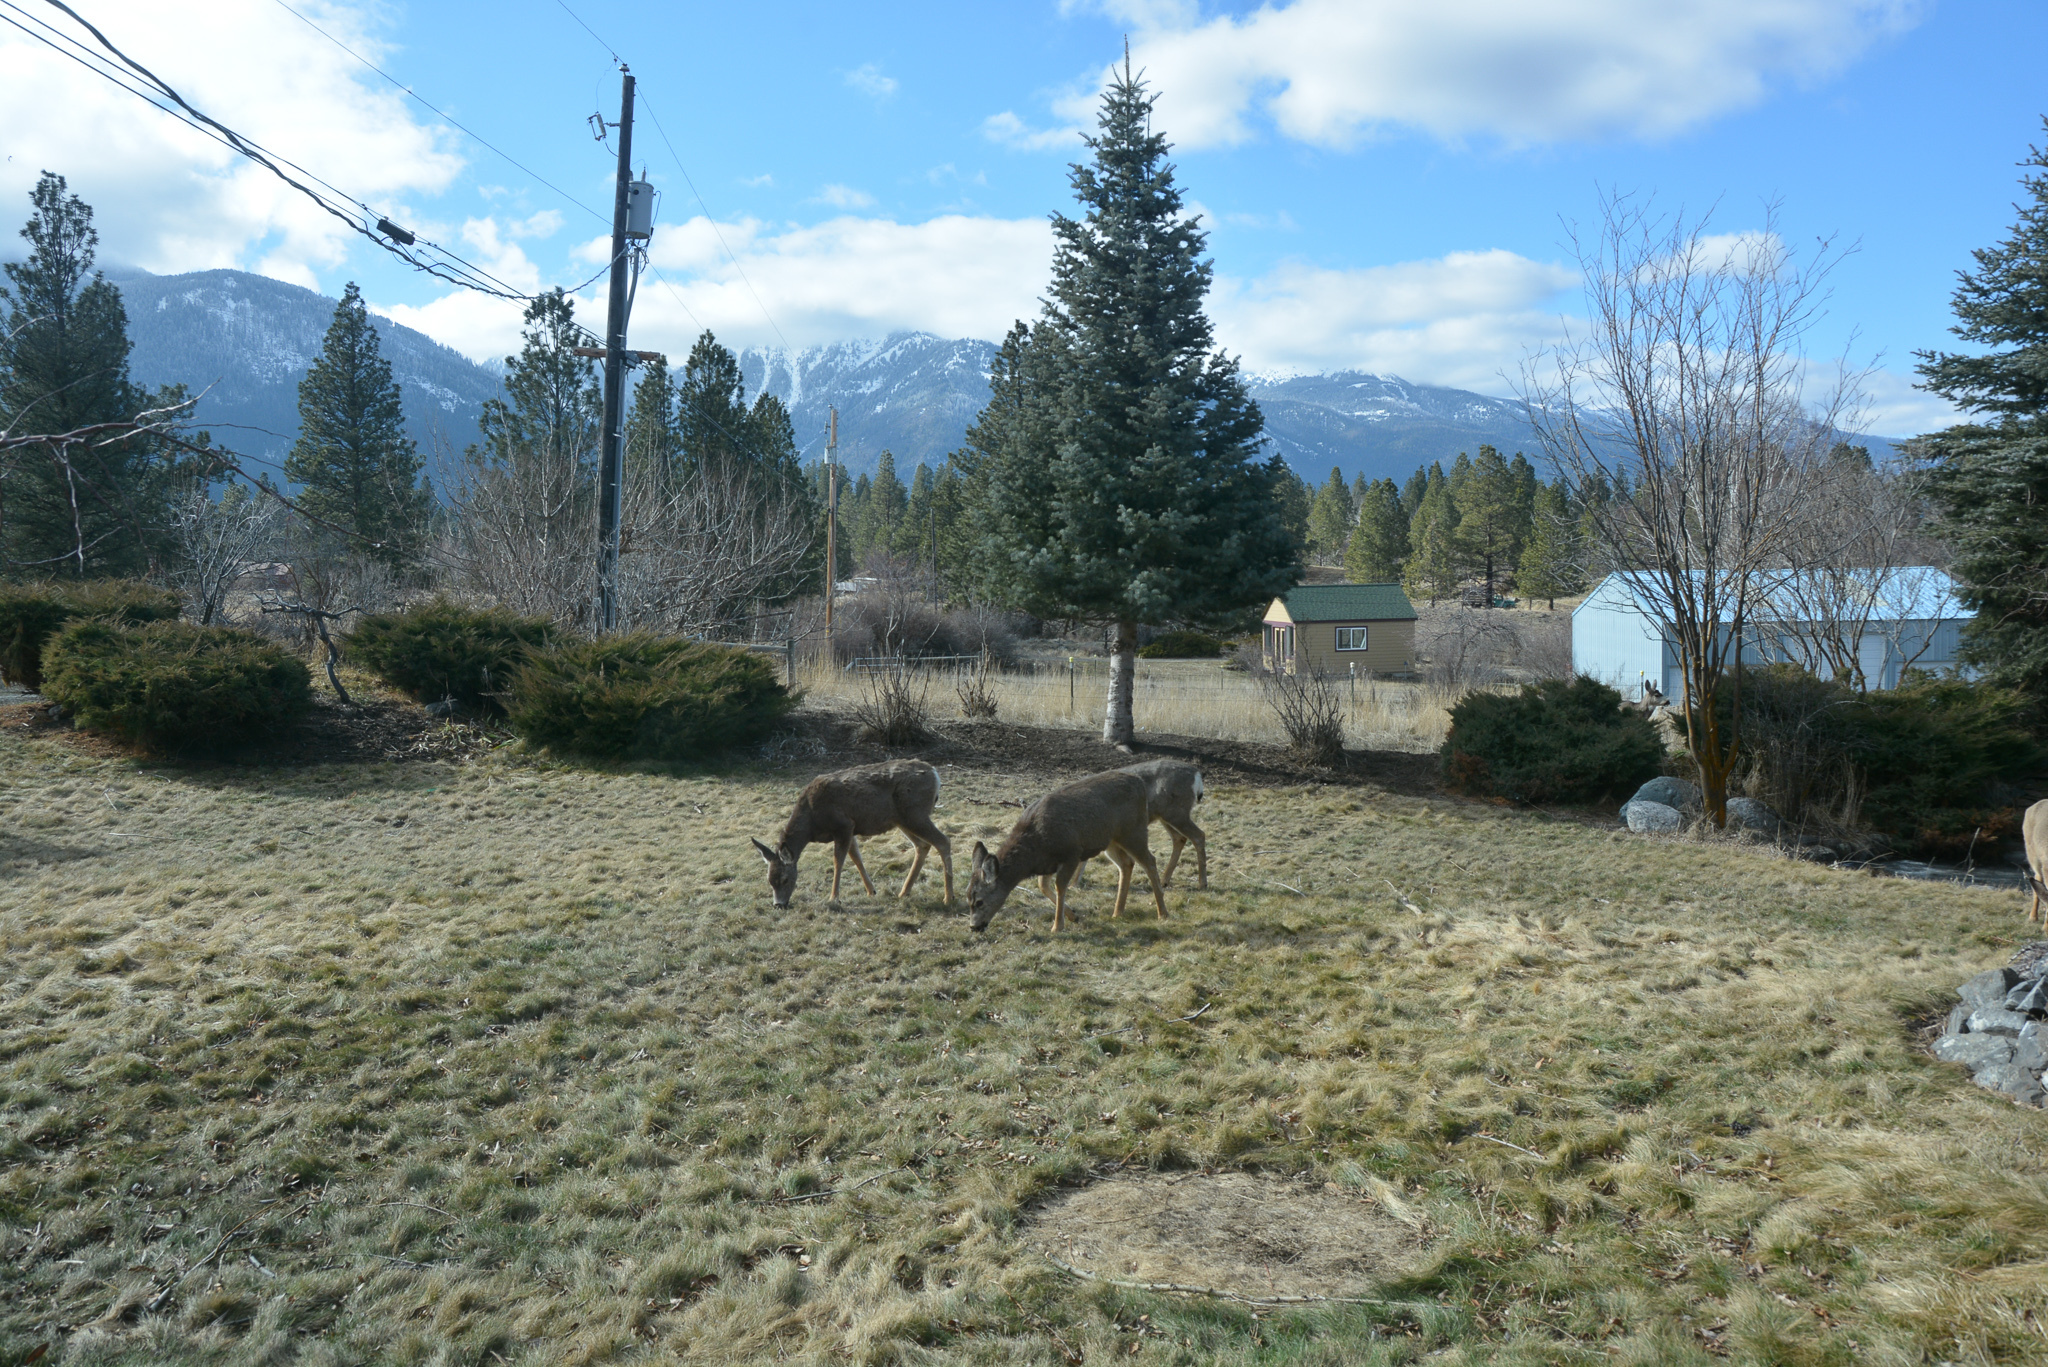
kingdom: Animalia
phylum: Chordata
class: Mammalia
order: Artiodactyla
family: Cervidae
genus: Odocoileus
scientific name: Odocoileus hemionus
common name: Mule deer
